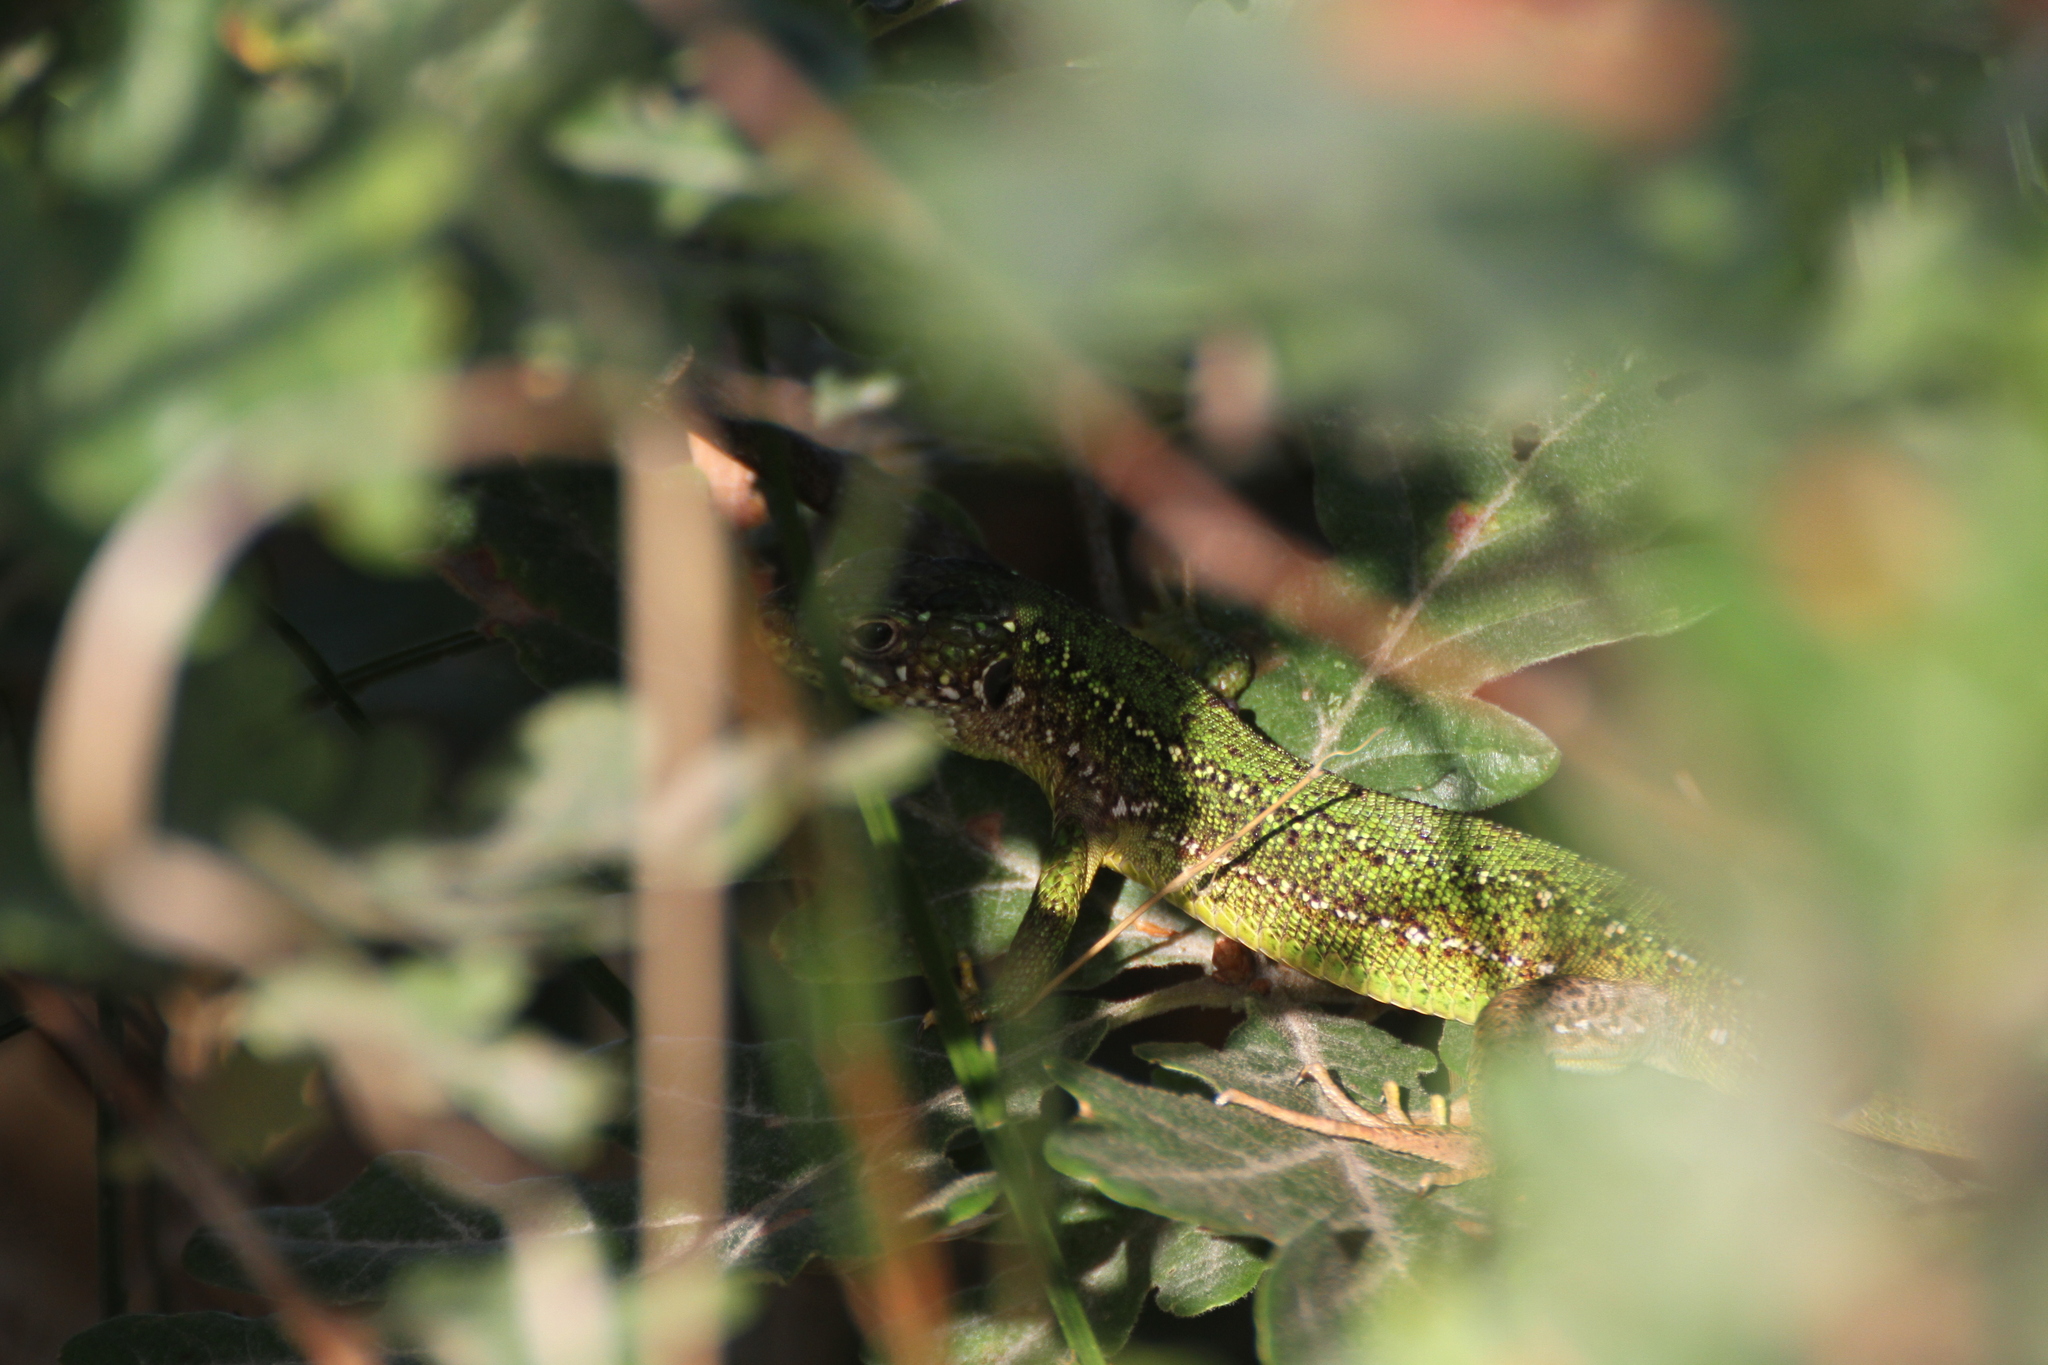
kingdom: Animalia
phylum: Chordata
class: Squamata
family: Lacertidae
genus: Lacerta
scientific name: Lacerta bilineata
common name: Western green lizard
